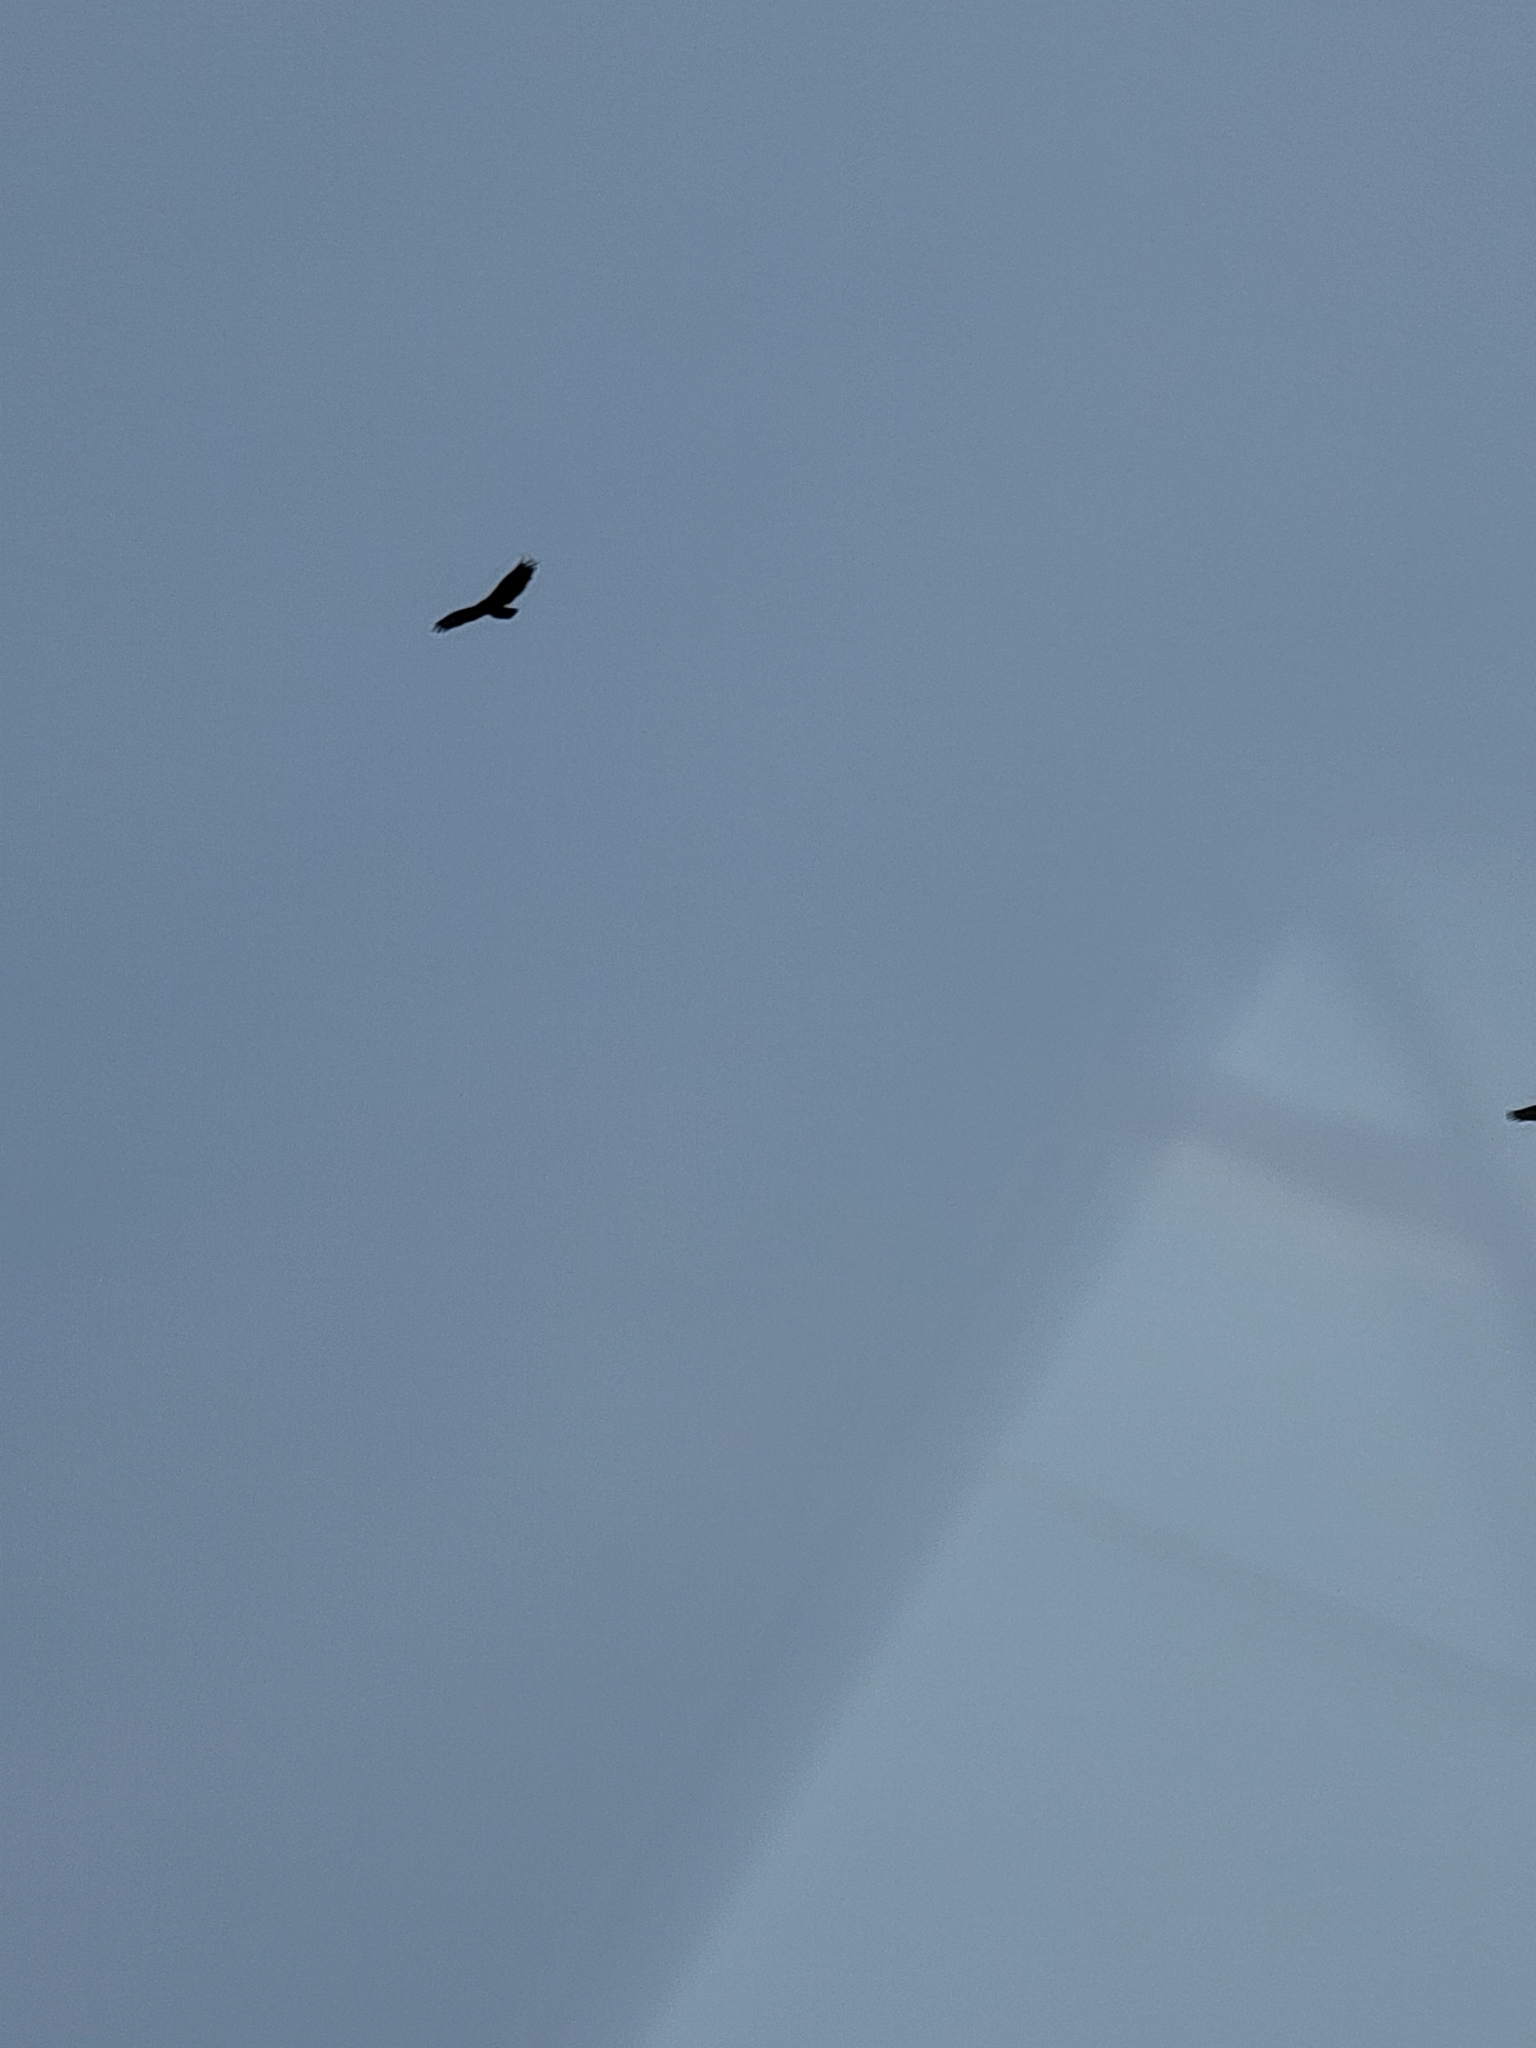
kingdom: Animalia
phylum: Chordata
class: Aves
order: Accipitriformes
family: Cathartidae
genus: Cathartes
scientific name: Cathartes aura
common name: Turkey vulture
